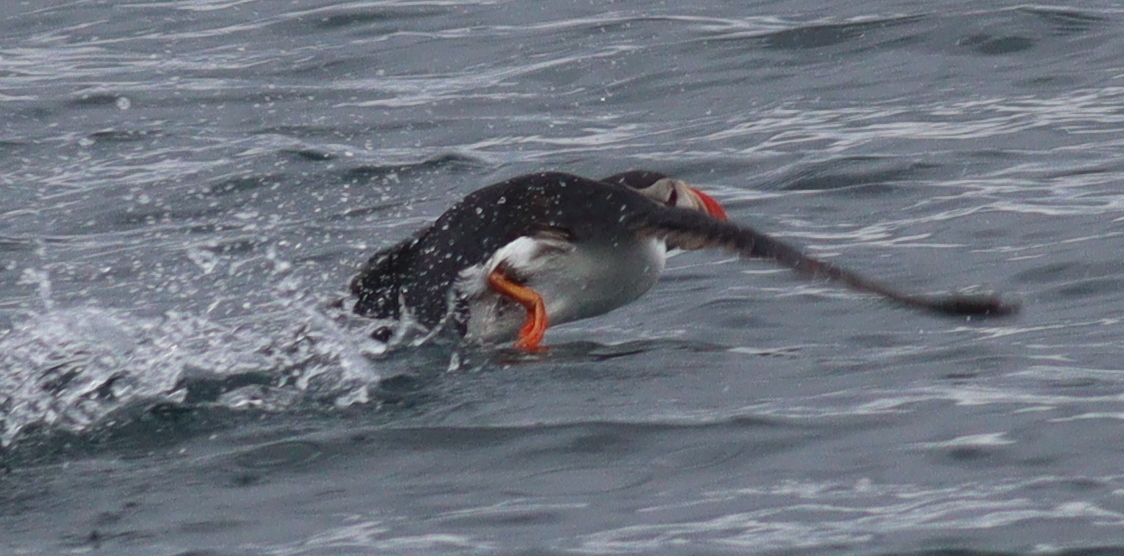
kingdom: Animalia
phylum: Chordata
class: Aves
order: Charadriiformes
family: Alcidae
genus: Fratercula
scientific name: Fratercula arctica
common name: Atlantic puffin
